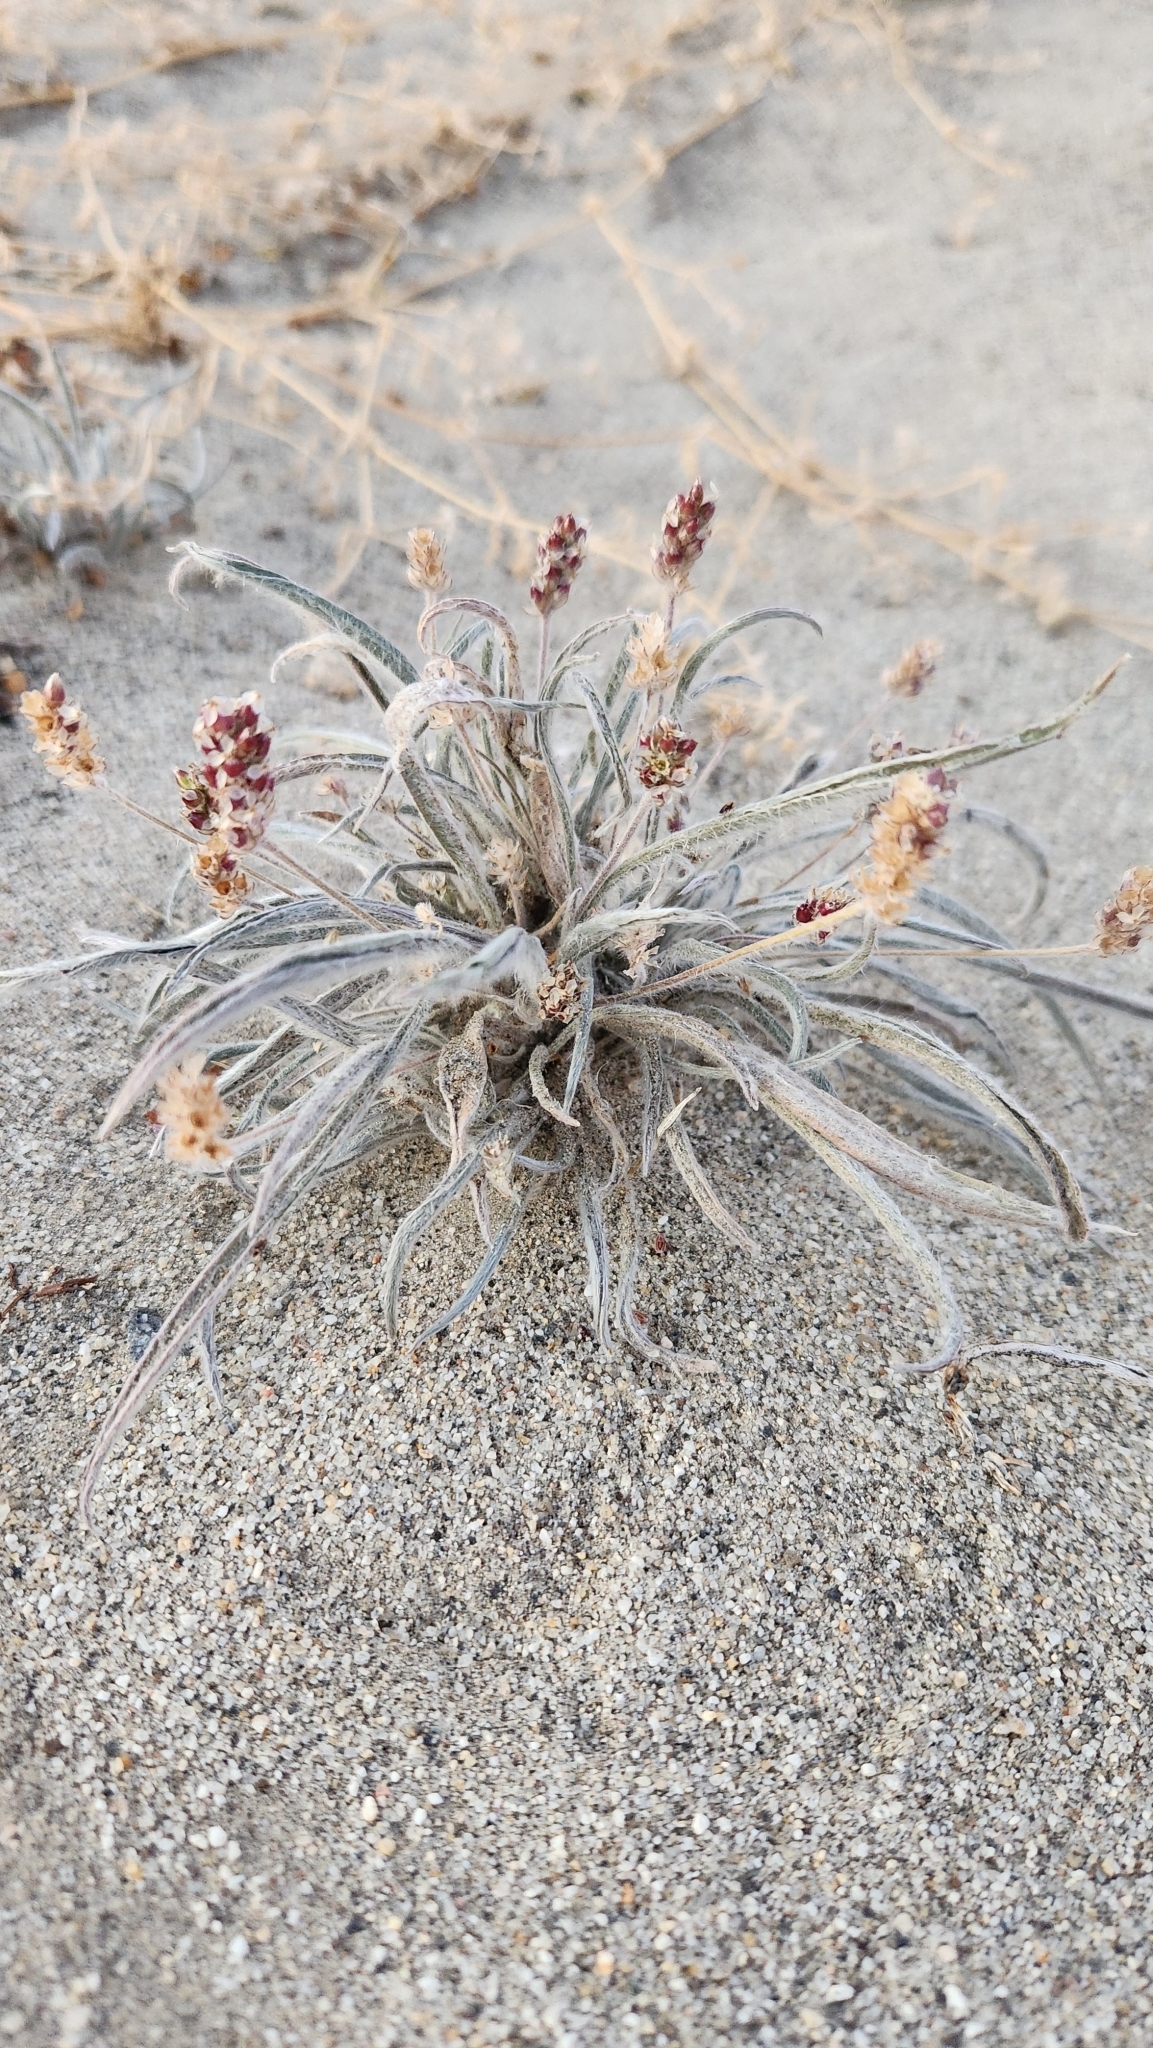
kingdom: Plantae
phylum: Tracheophyta
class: Magnoliopsida
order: Lamiales
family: Plantaginaceae
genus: Plantago
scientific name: Plantago ovata
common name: Blond plantain
